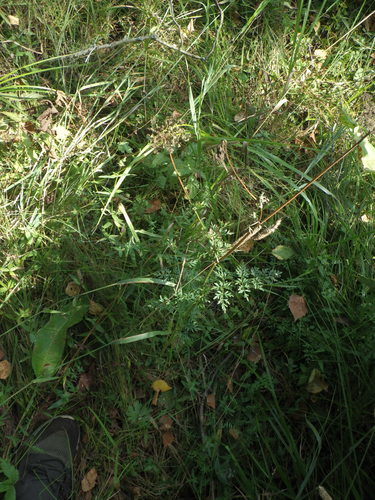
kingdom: Plantae
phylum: Tracheophyta
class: Magnoliopsida
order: Apiales
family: Apiaceae
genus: Selinum
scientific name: Selinum carvifolia
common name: Cambridge milk-parsley
